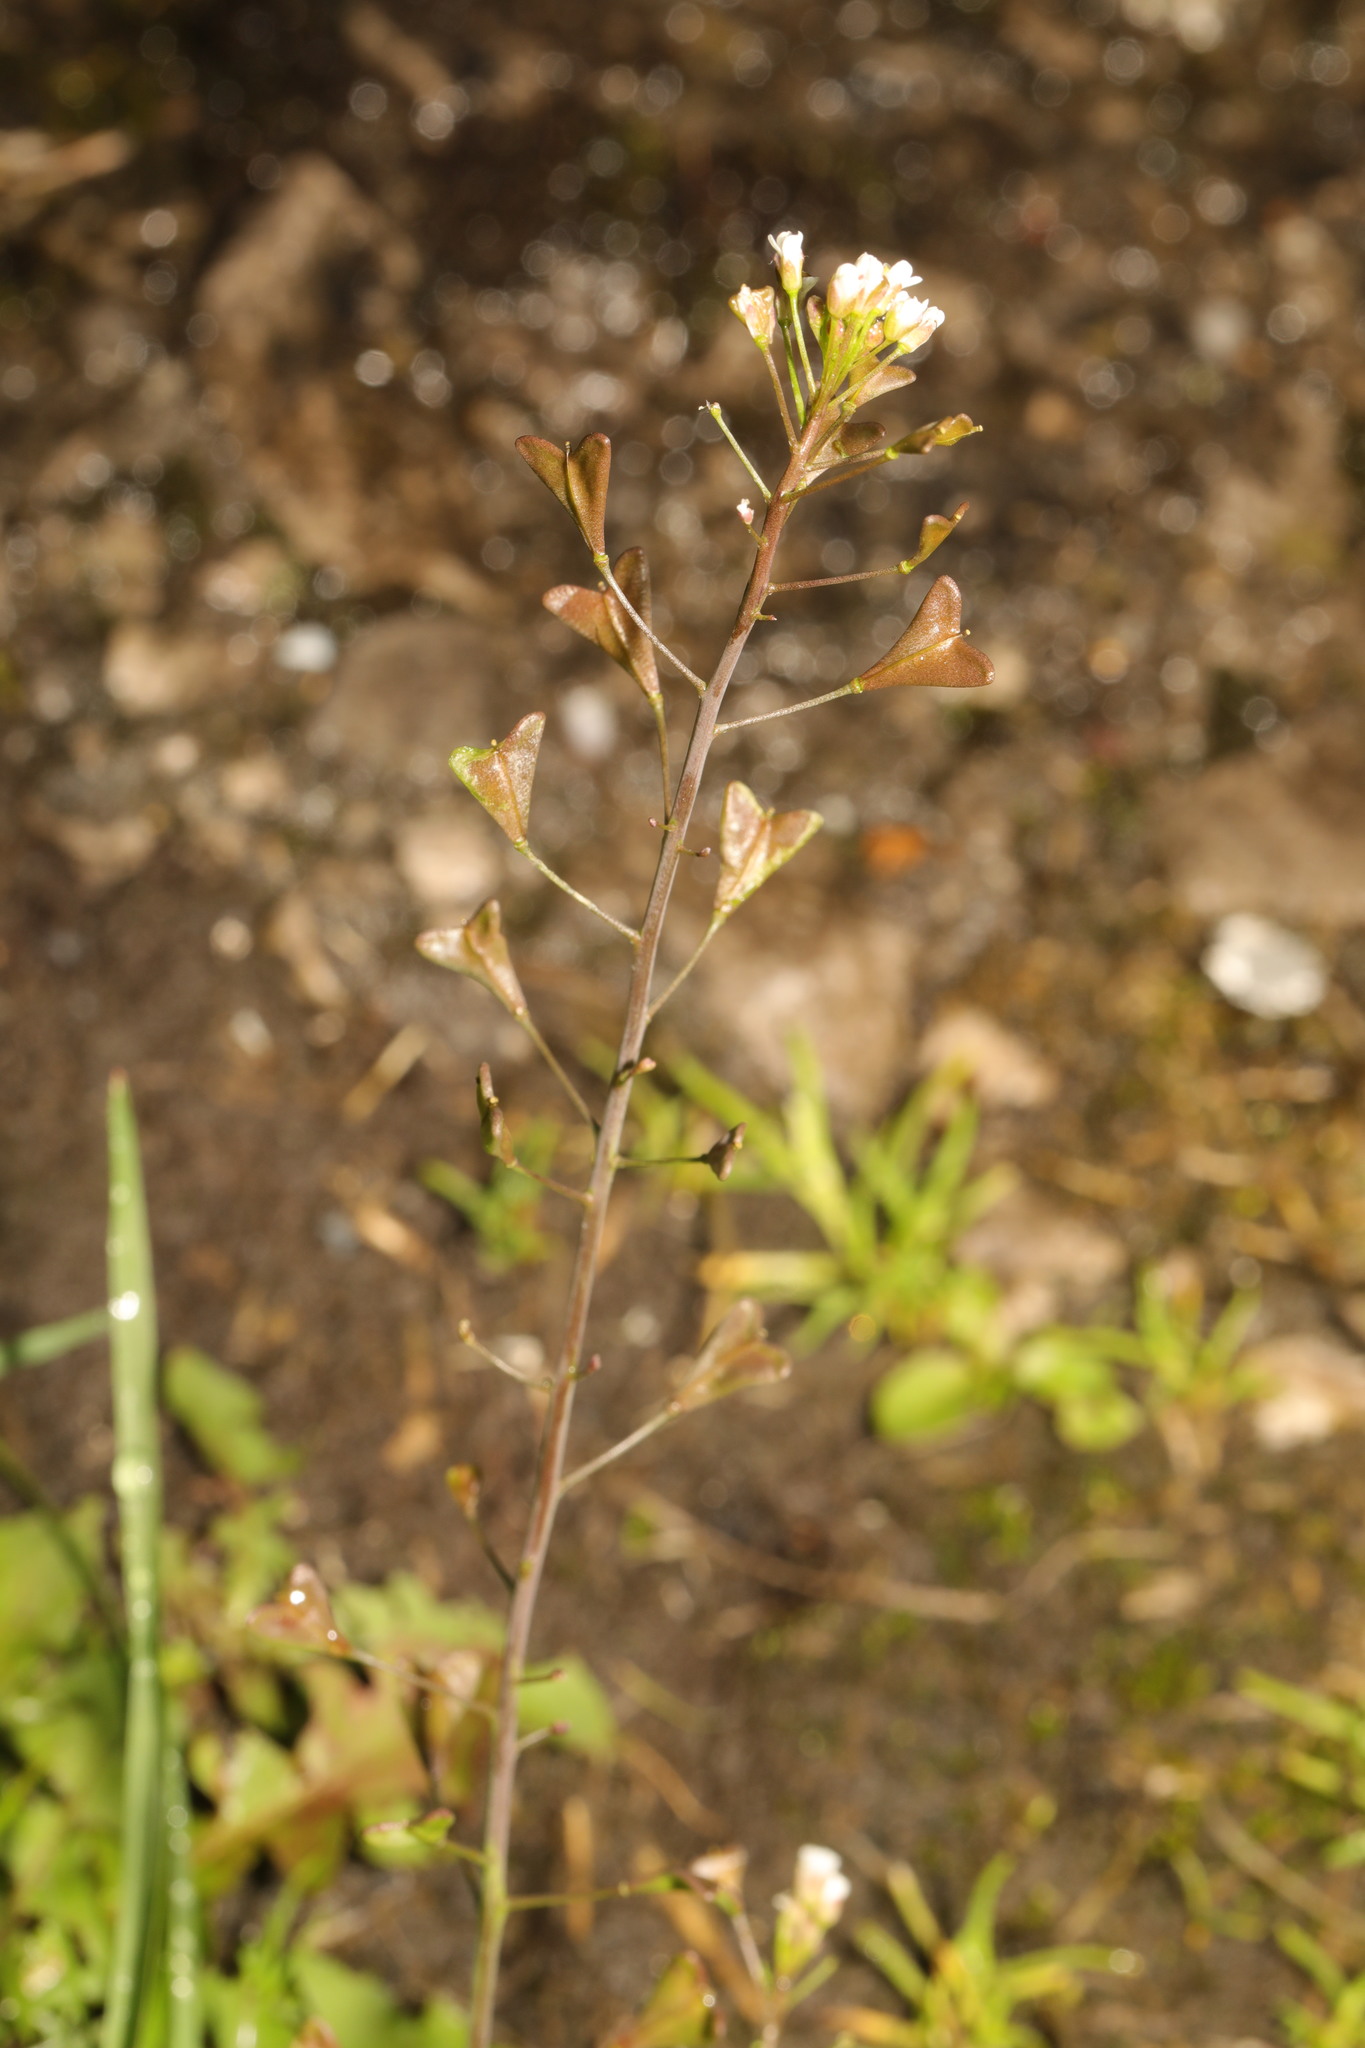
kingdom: Plantae
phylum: Tracheophyta
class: Magnoliopsida
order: Brassicales
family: Brassicaceae
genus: Capsella
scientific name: Capsella bursa-pastoris
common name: Shepherd's purse
